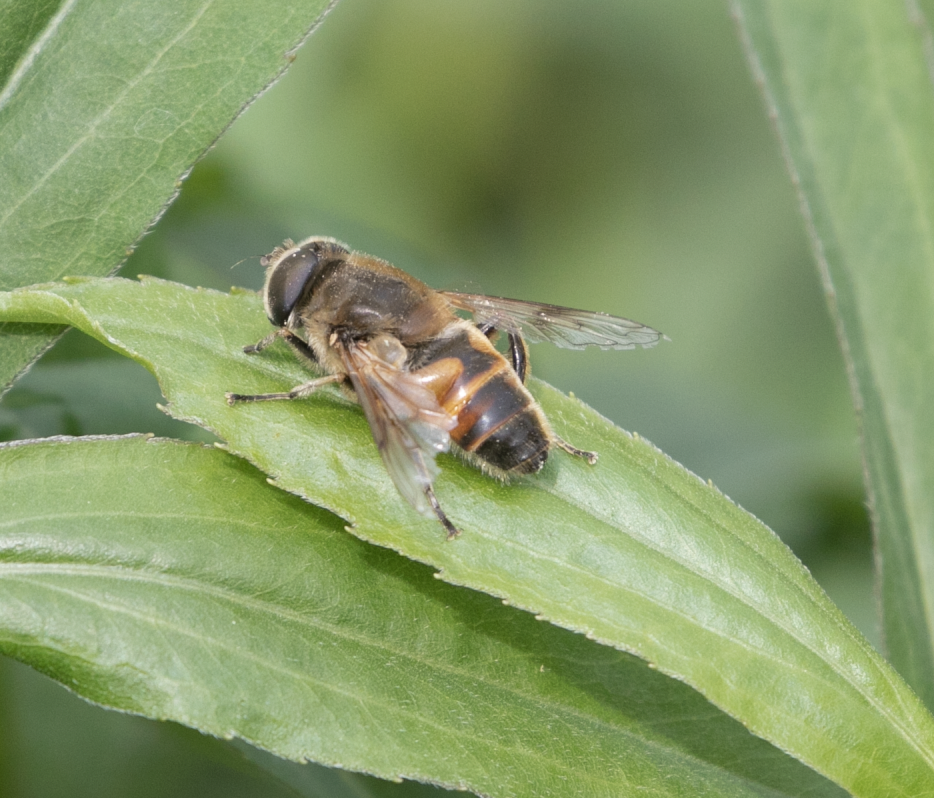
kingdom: Animalia
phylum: Arthropoda
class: Insecta
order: Diptera
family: Syrphidae
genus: Eristalis
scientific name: Eristalis tenax
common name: Drone fly
